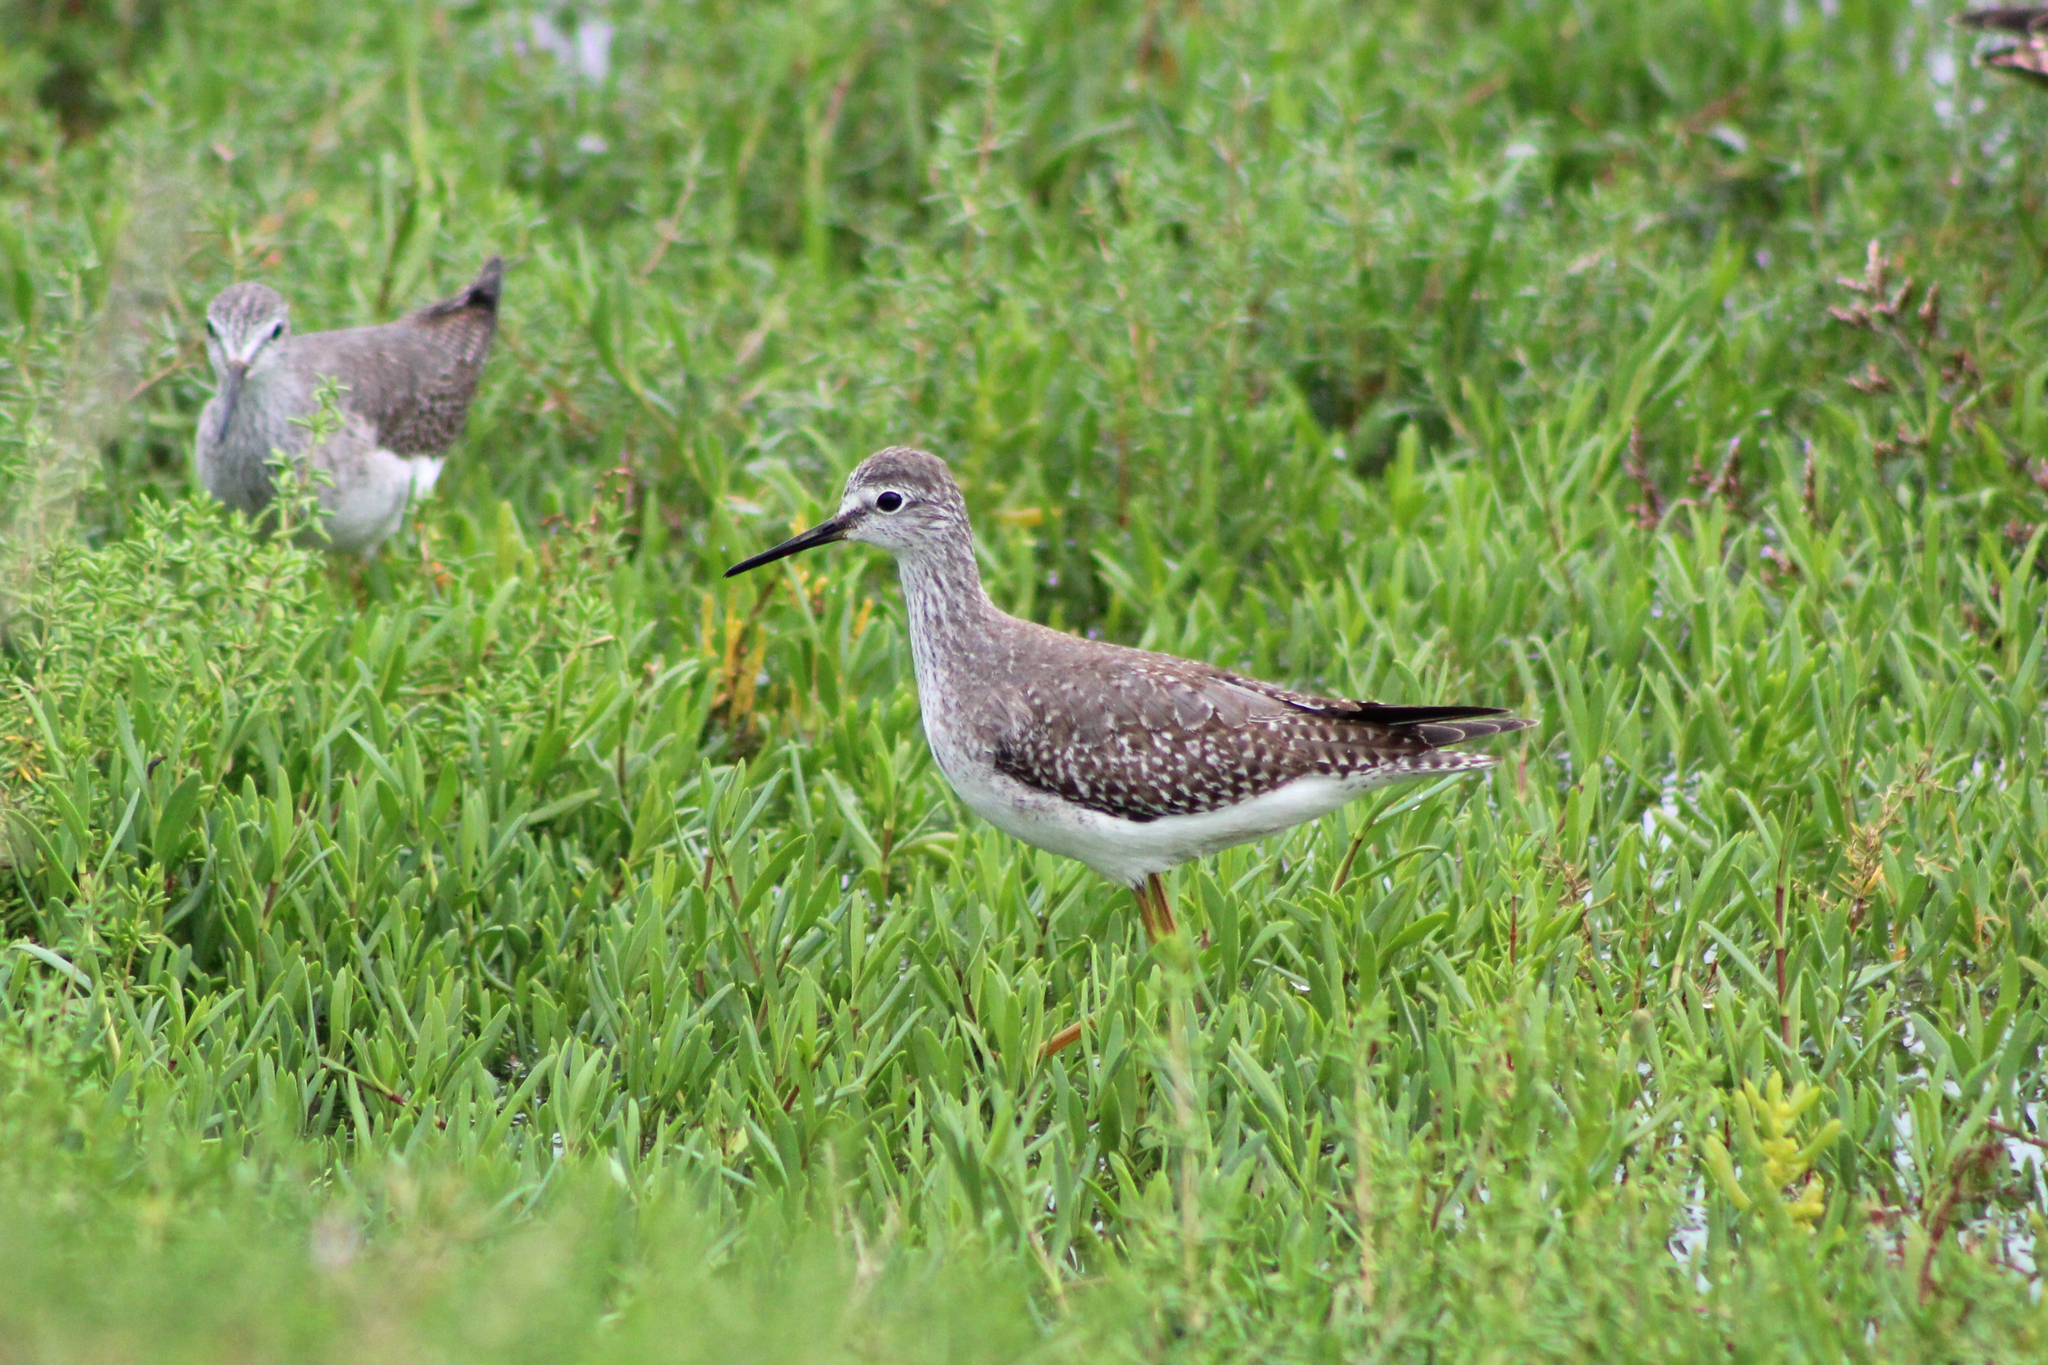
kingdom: Animalia
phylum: Chordata
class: Aves
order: Charadriiformes
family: Scolopacidae
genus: Tringa
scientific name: Tringa flavipes
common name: Lesser yellowlegs
